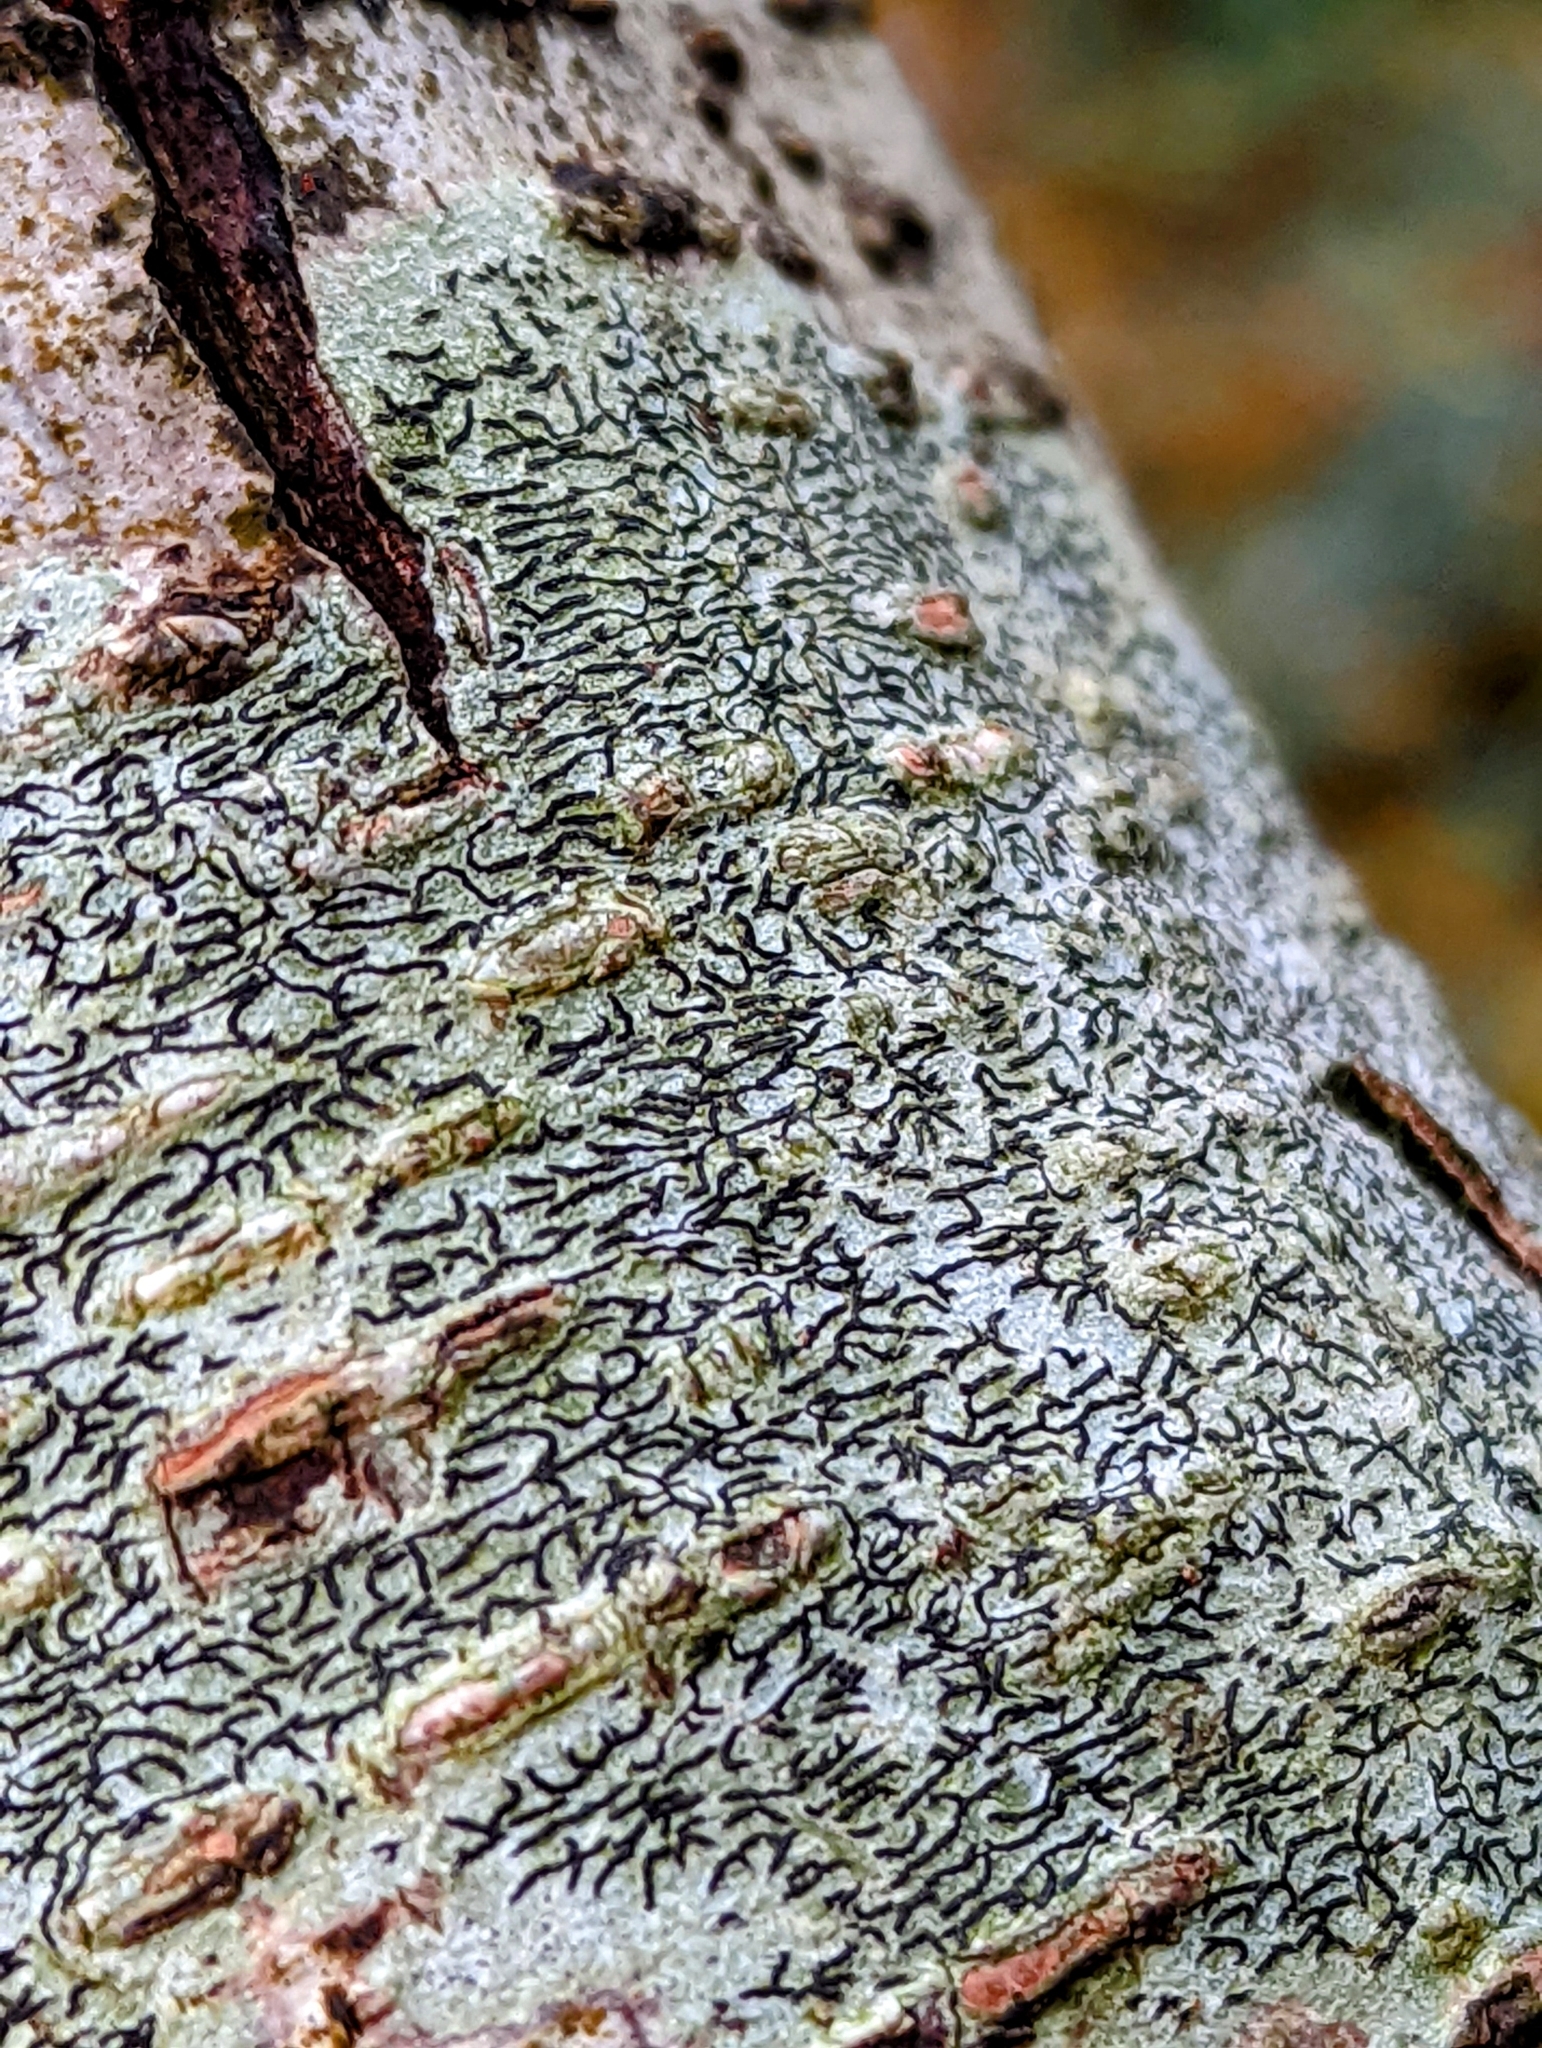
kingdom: Fungi
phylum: Ascomycota
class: Lecanoromycetes
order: Ostropales
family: Graphidaceae
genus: Graphis
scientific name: Graphis scripta
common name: Script lichen
